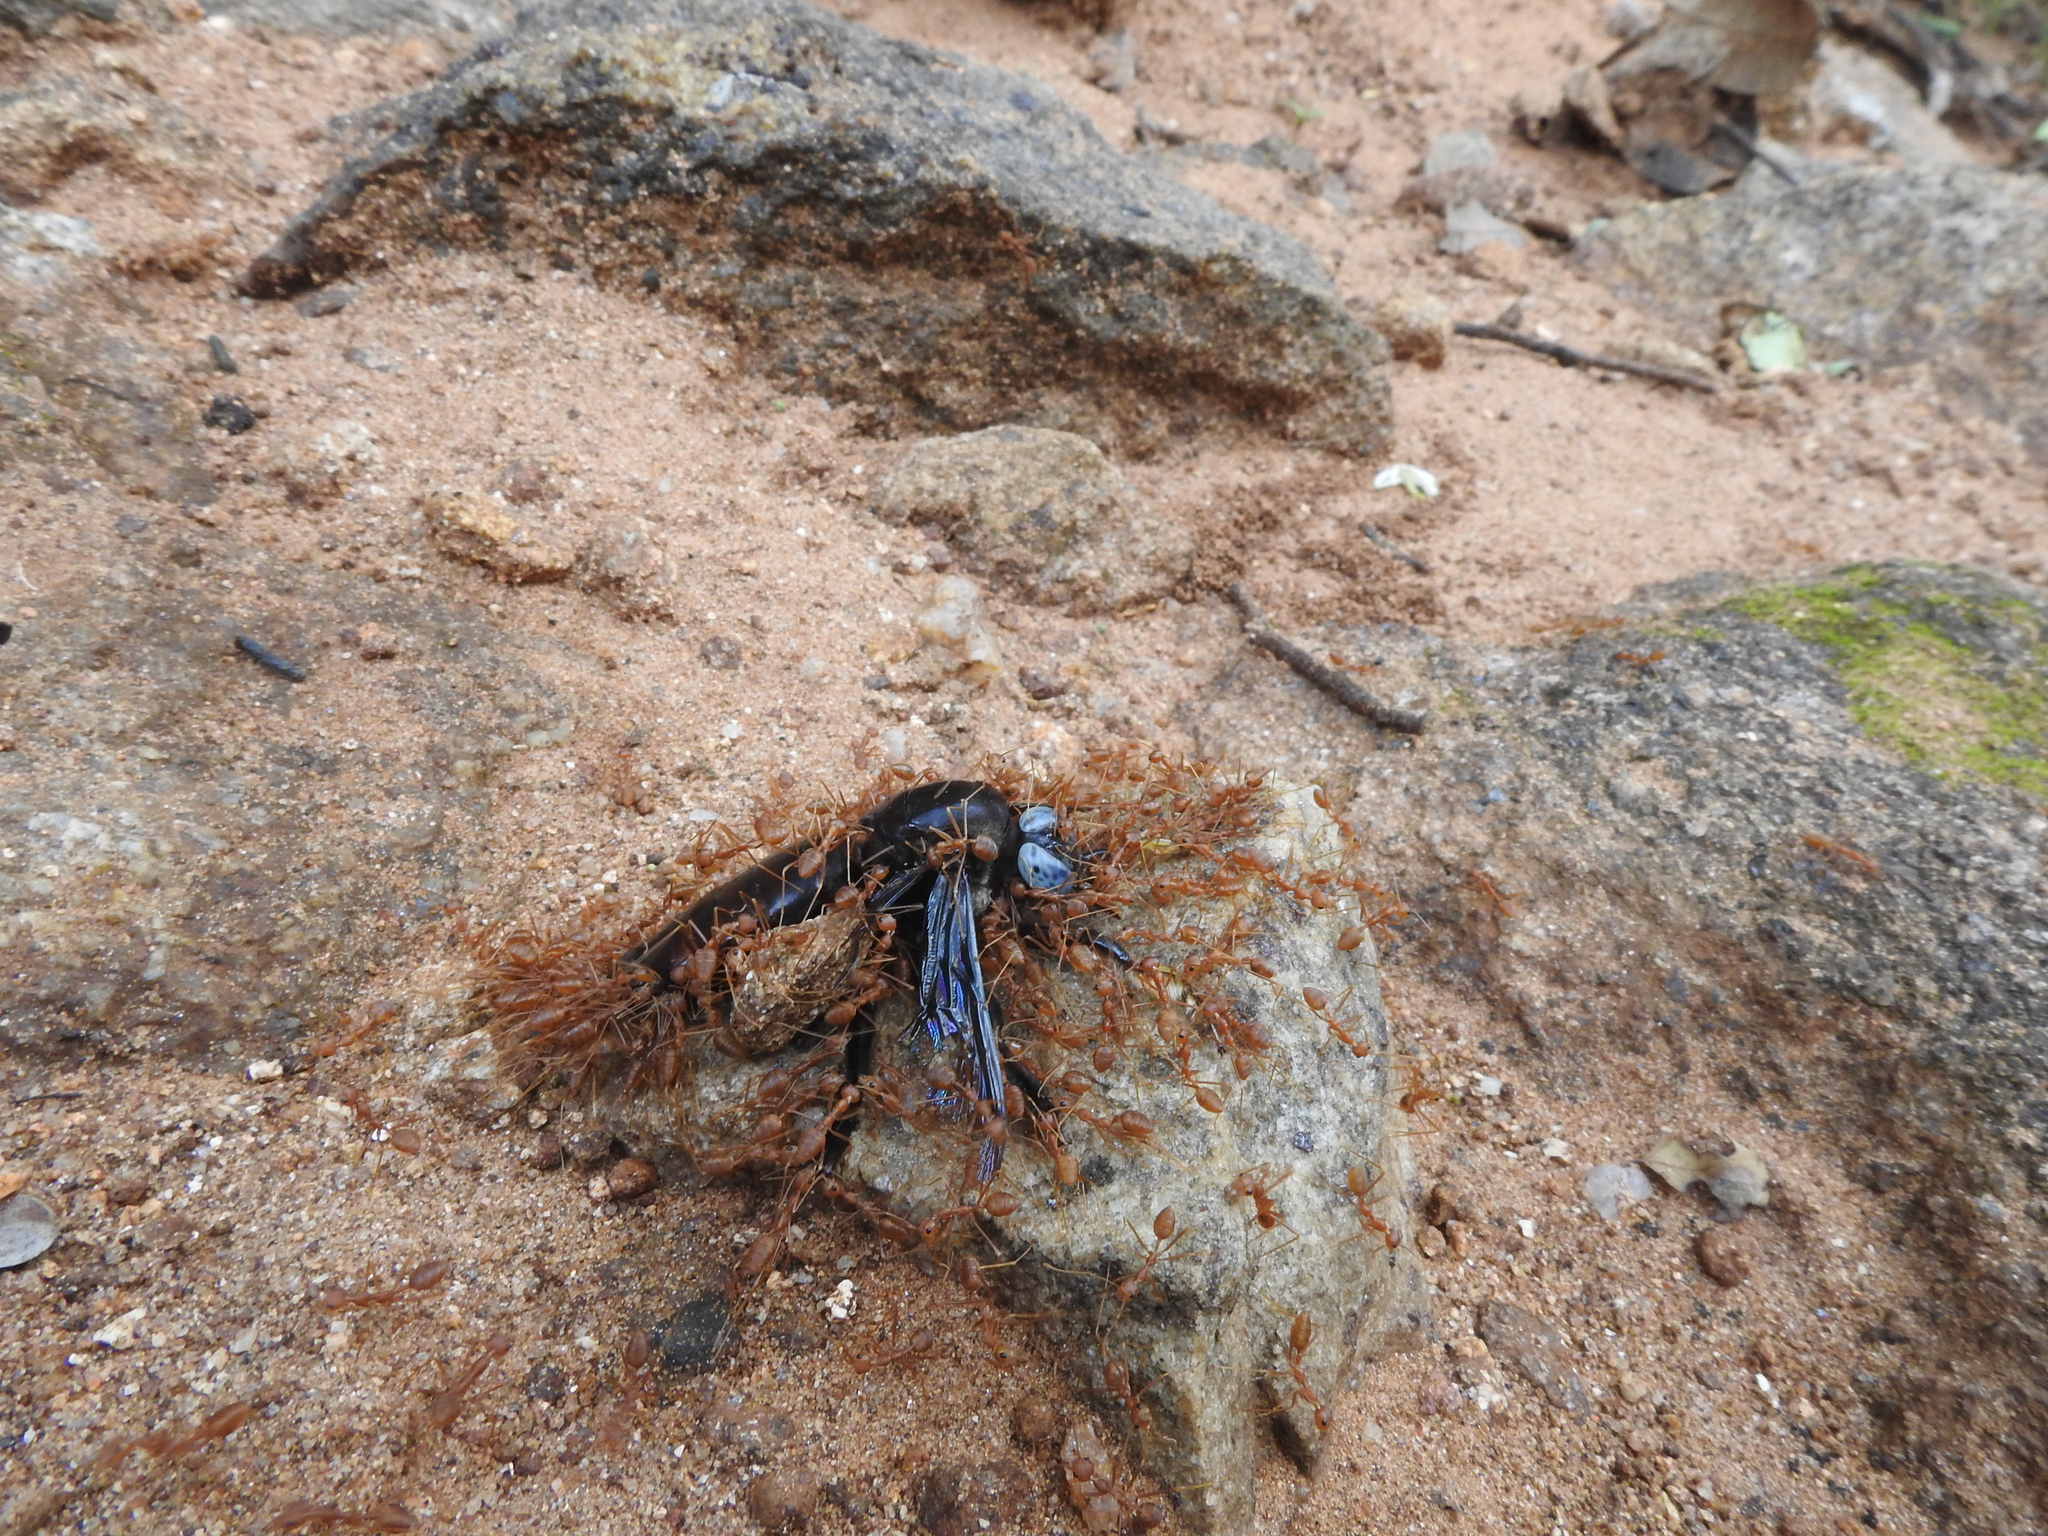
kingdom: Animalia
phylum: Arthropoda
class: Insecta
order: Hymenoptera
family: Formicidae
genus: Oecophylla
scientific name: Oecophylla smaragdina
